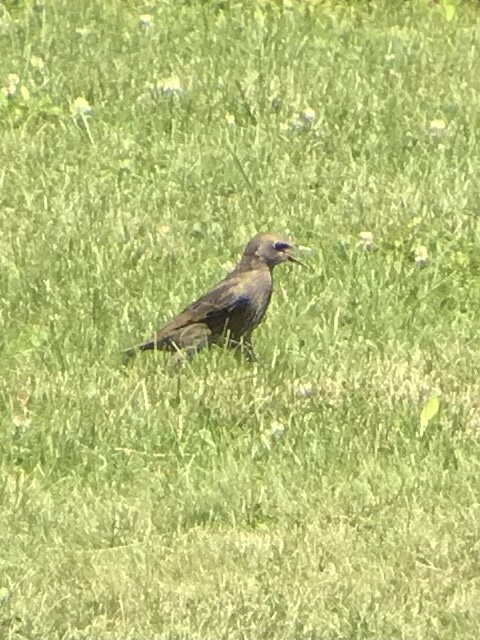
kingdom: Animalia
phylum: Chordata
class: Aves
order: Passeriformes
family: Sturnidae
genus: Sturnus
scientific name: Sturnus vulgaris
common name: Common starling
